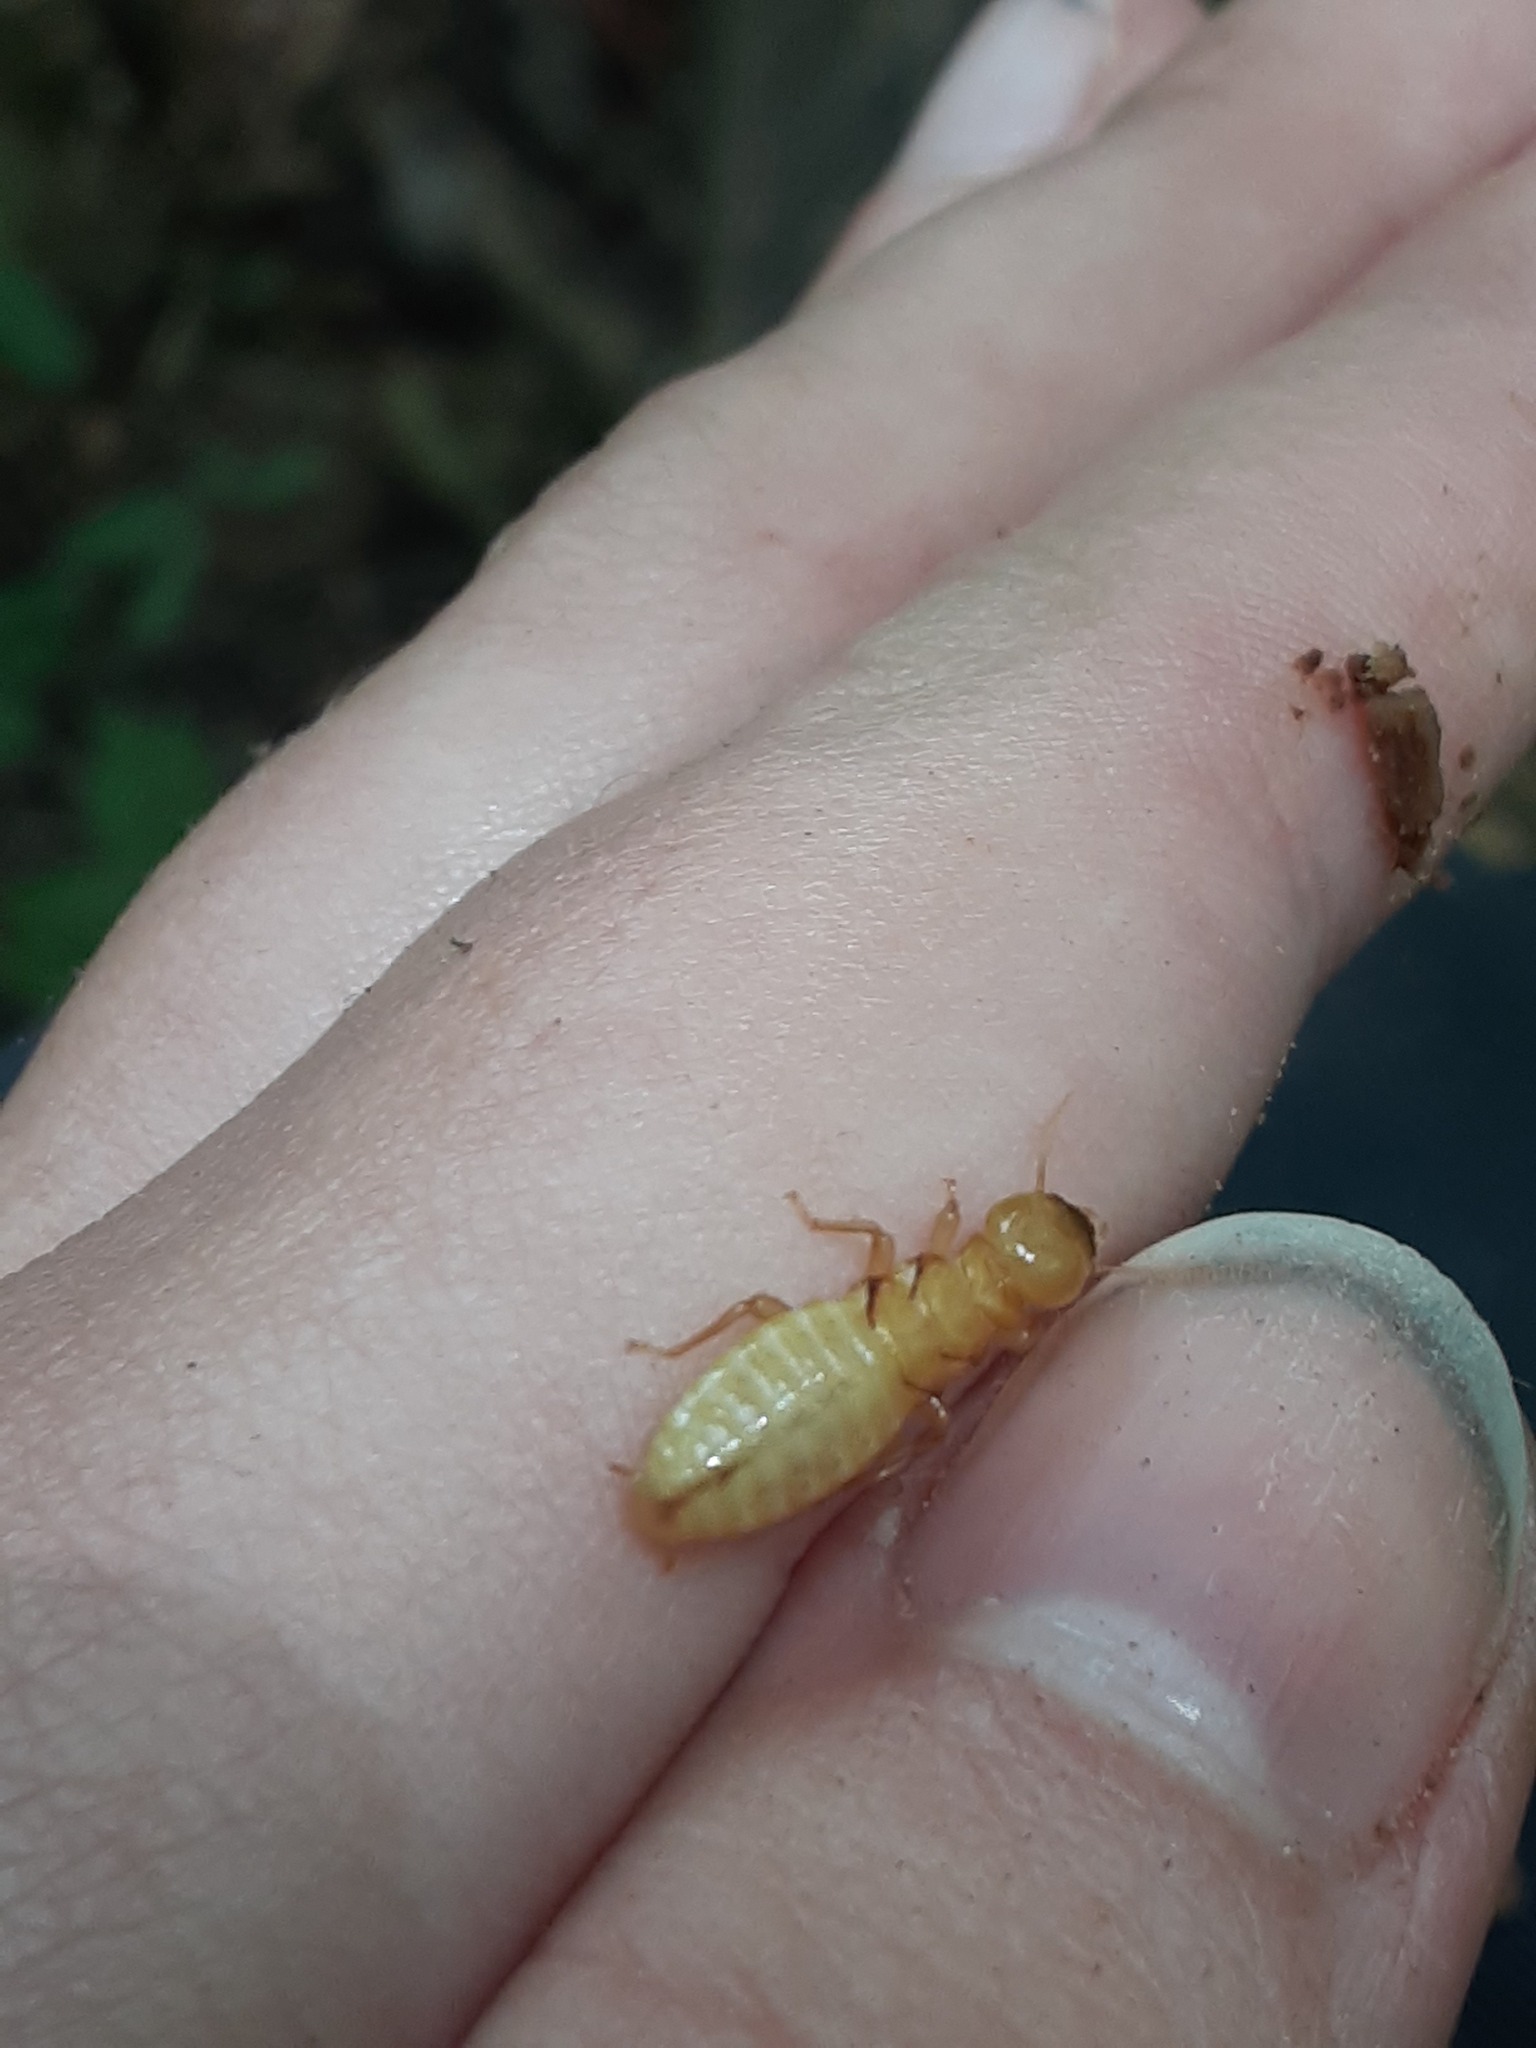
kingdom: Animalia
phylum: Arthropoda
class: Insecta
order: Blattodea
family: Archotermopsidae
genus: Zootermopsis
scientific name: Zootermopsis
